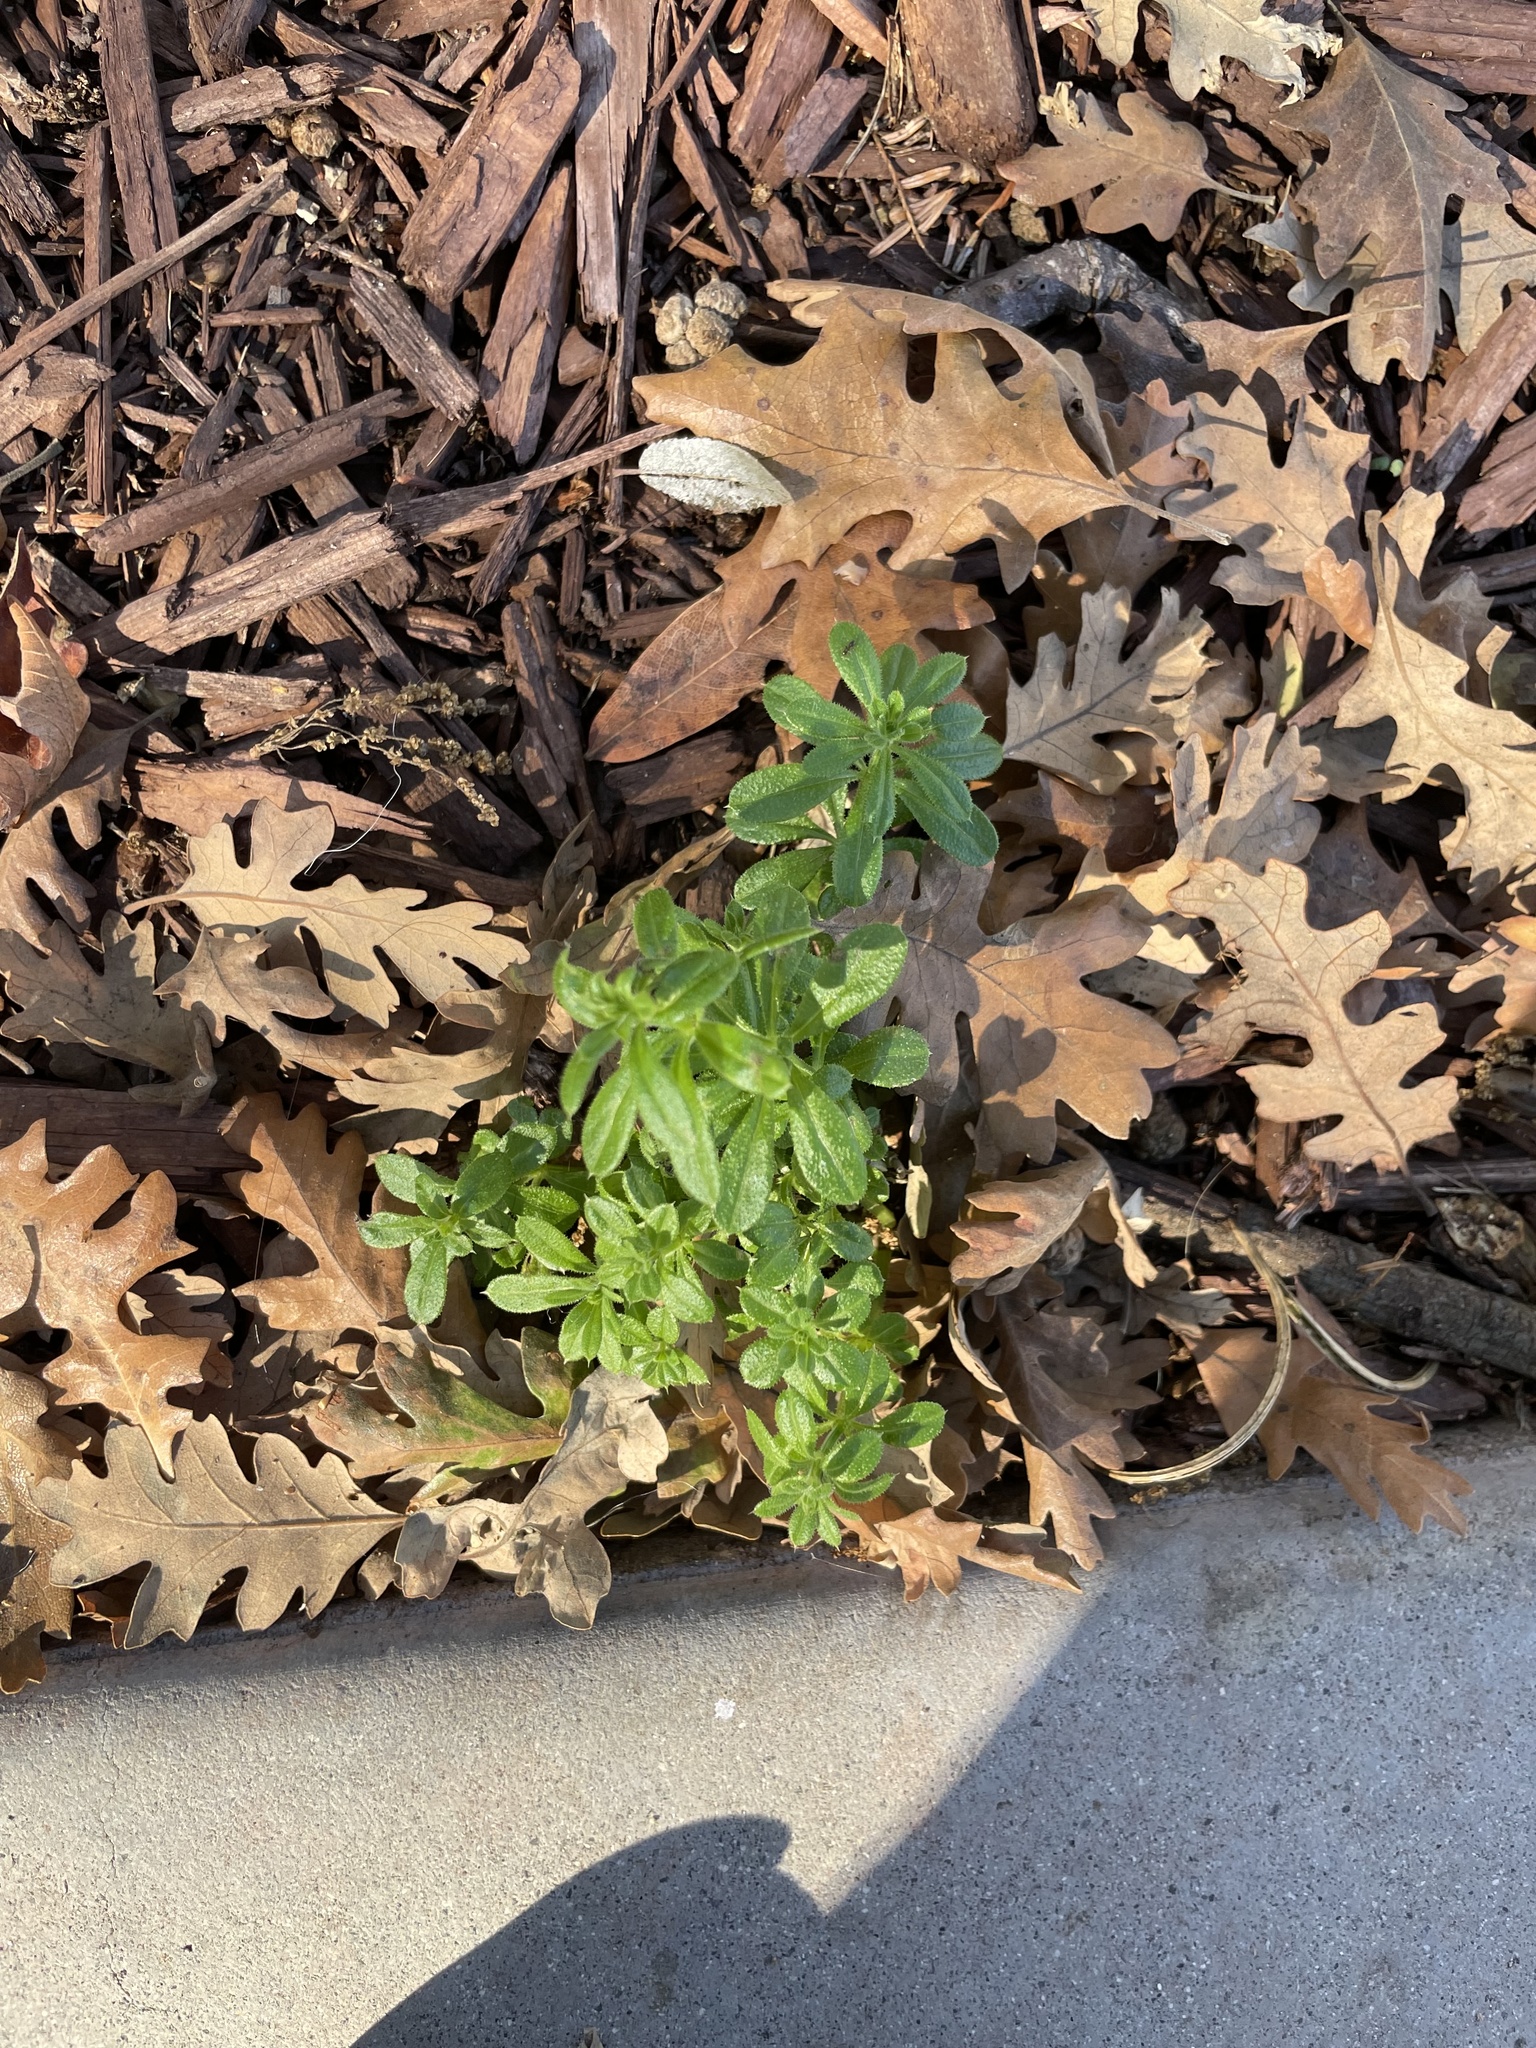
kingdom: Plantae
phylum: Tracheophyta
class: Magnoliopsida
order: Gentianales
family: Rubiaceae
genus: Galium
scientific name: Galium aparine
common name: Cleavers
